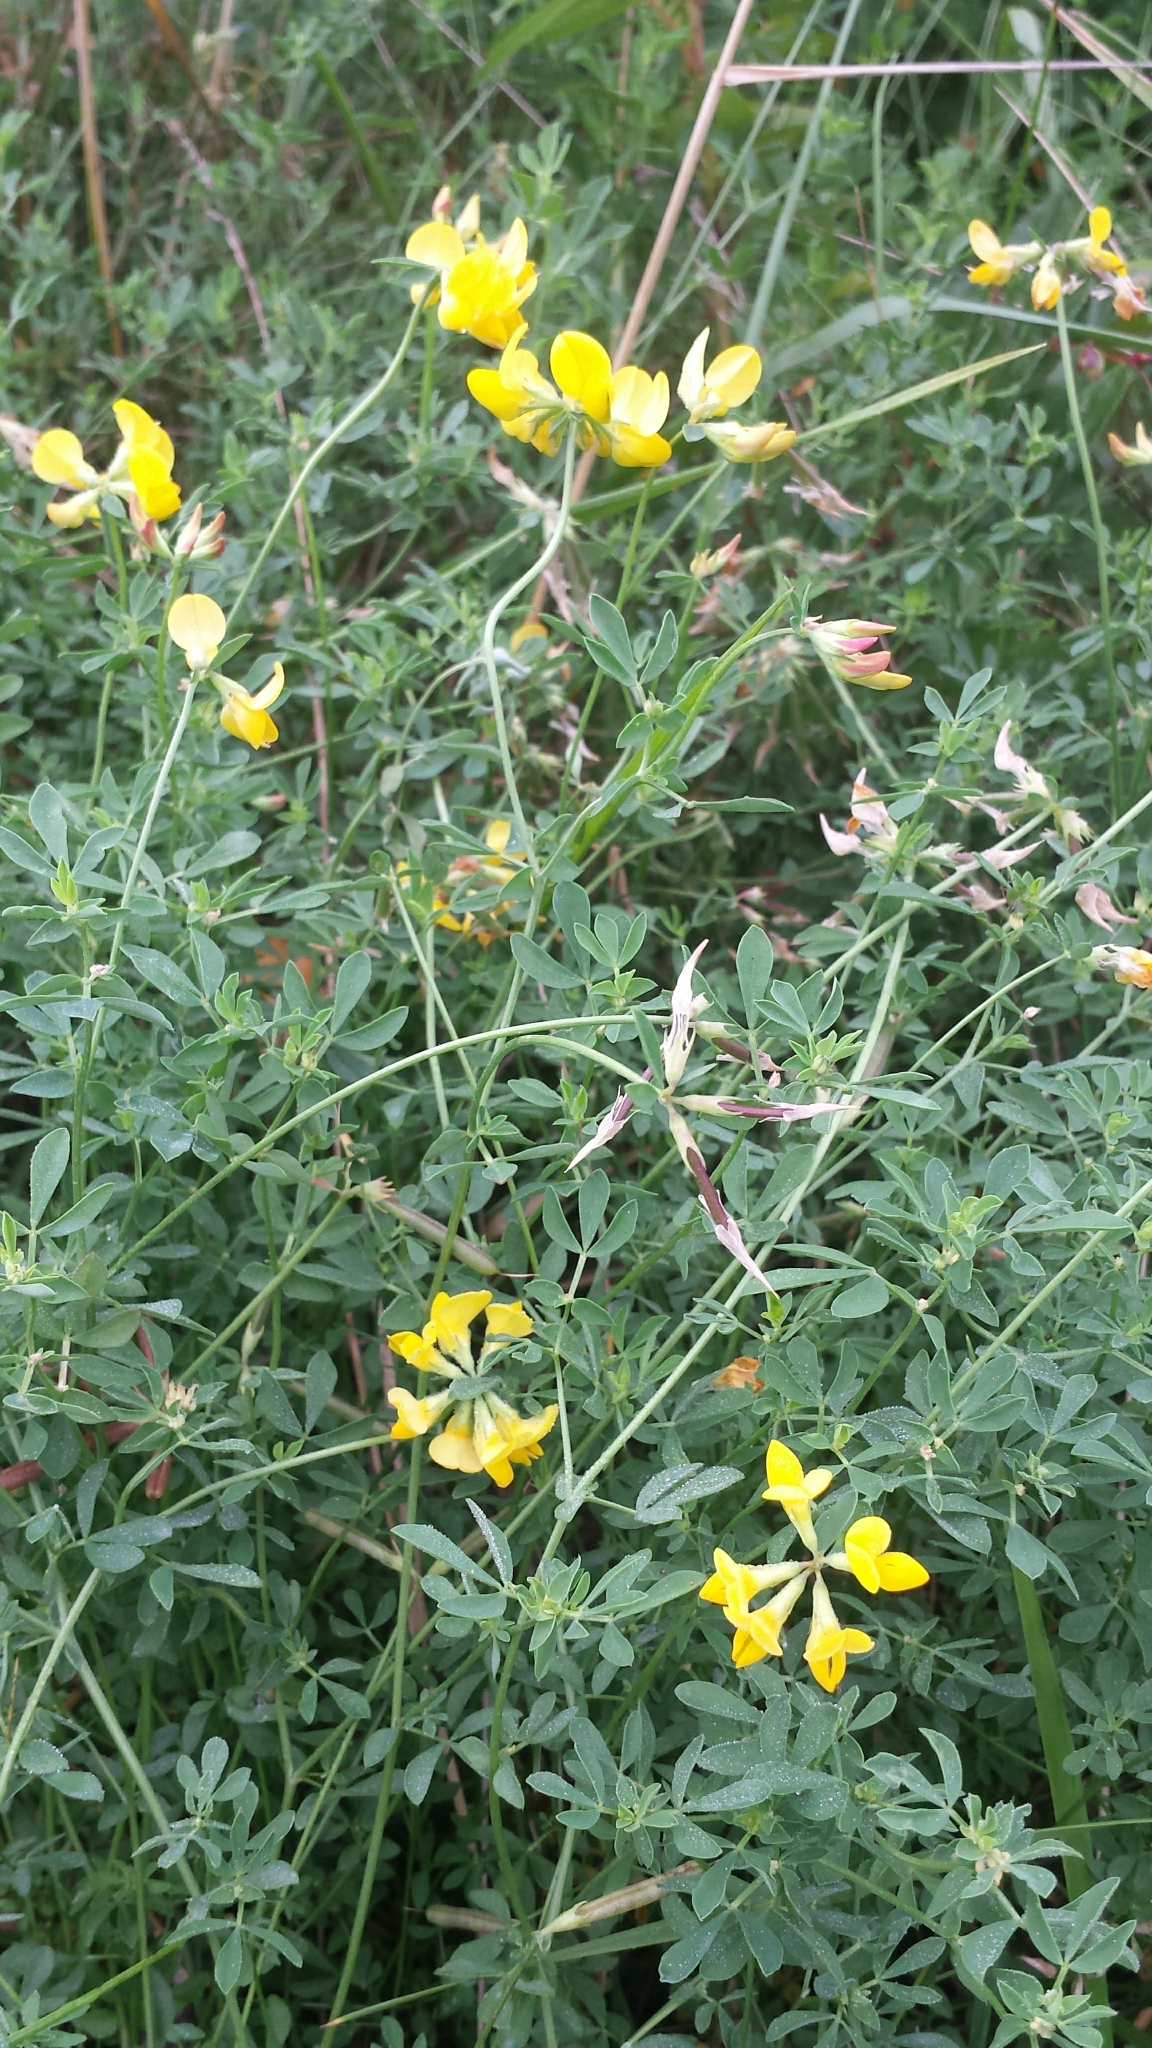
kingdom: Plantae
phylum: Tracheophyta
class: Magnoliopsida
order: Fabales
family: Fabaceae
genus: Lotus
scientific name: Lotus corniculatus
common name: Common bird's-foot-trefoil
